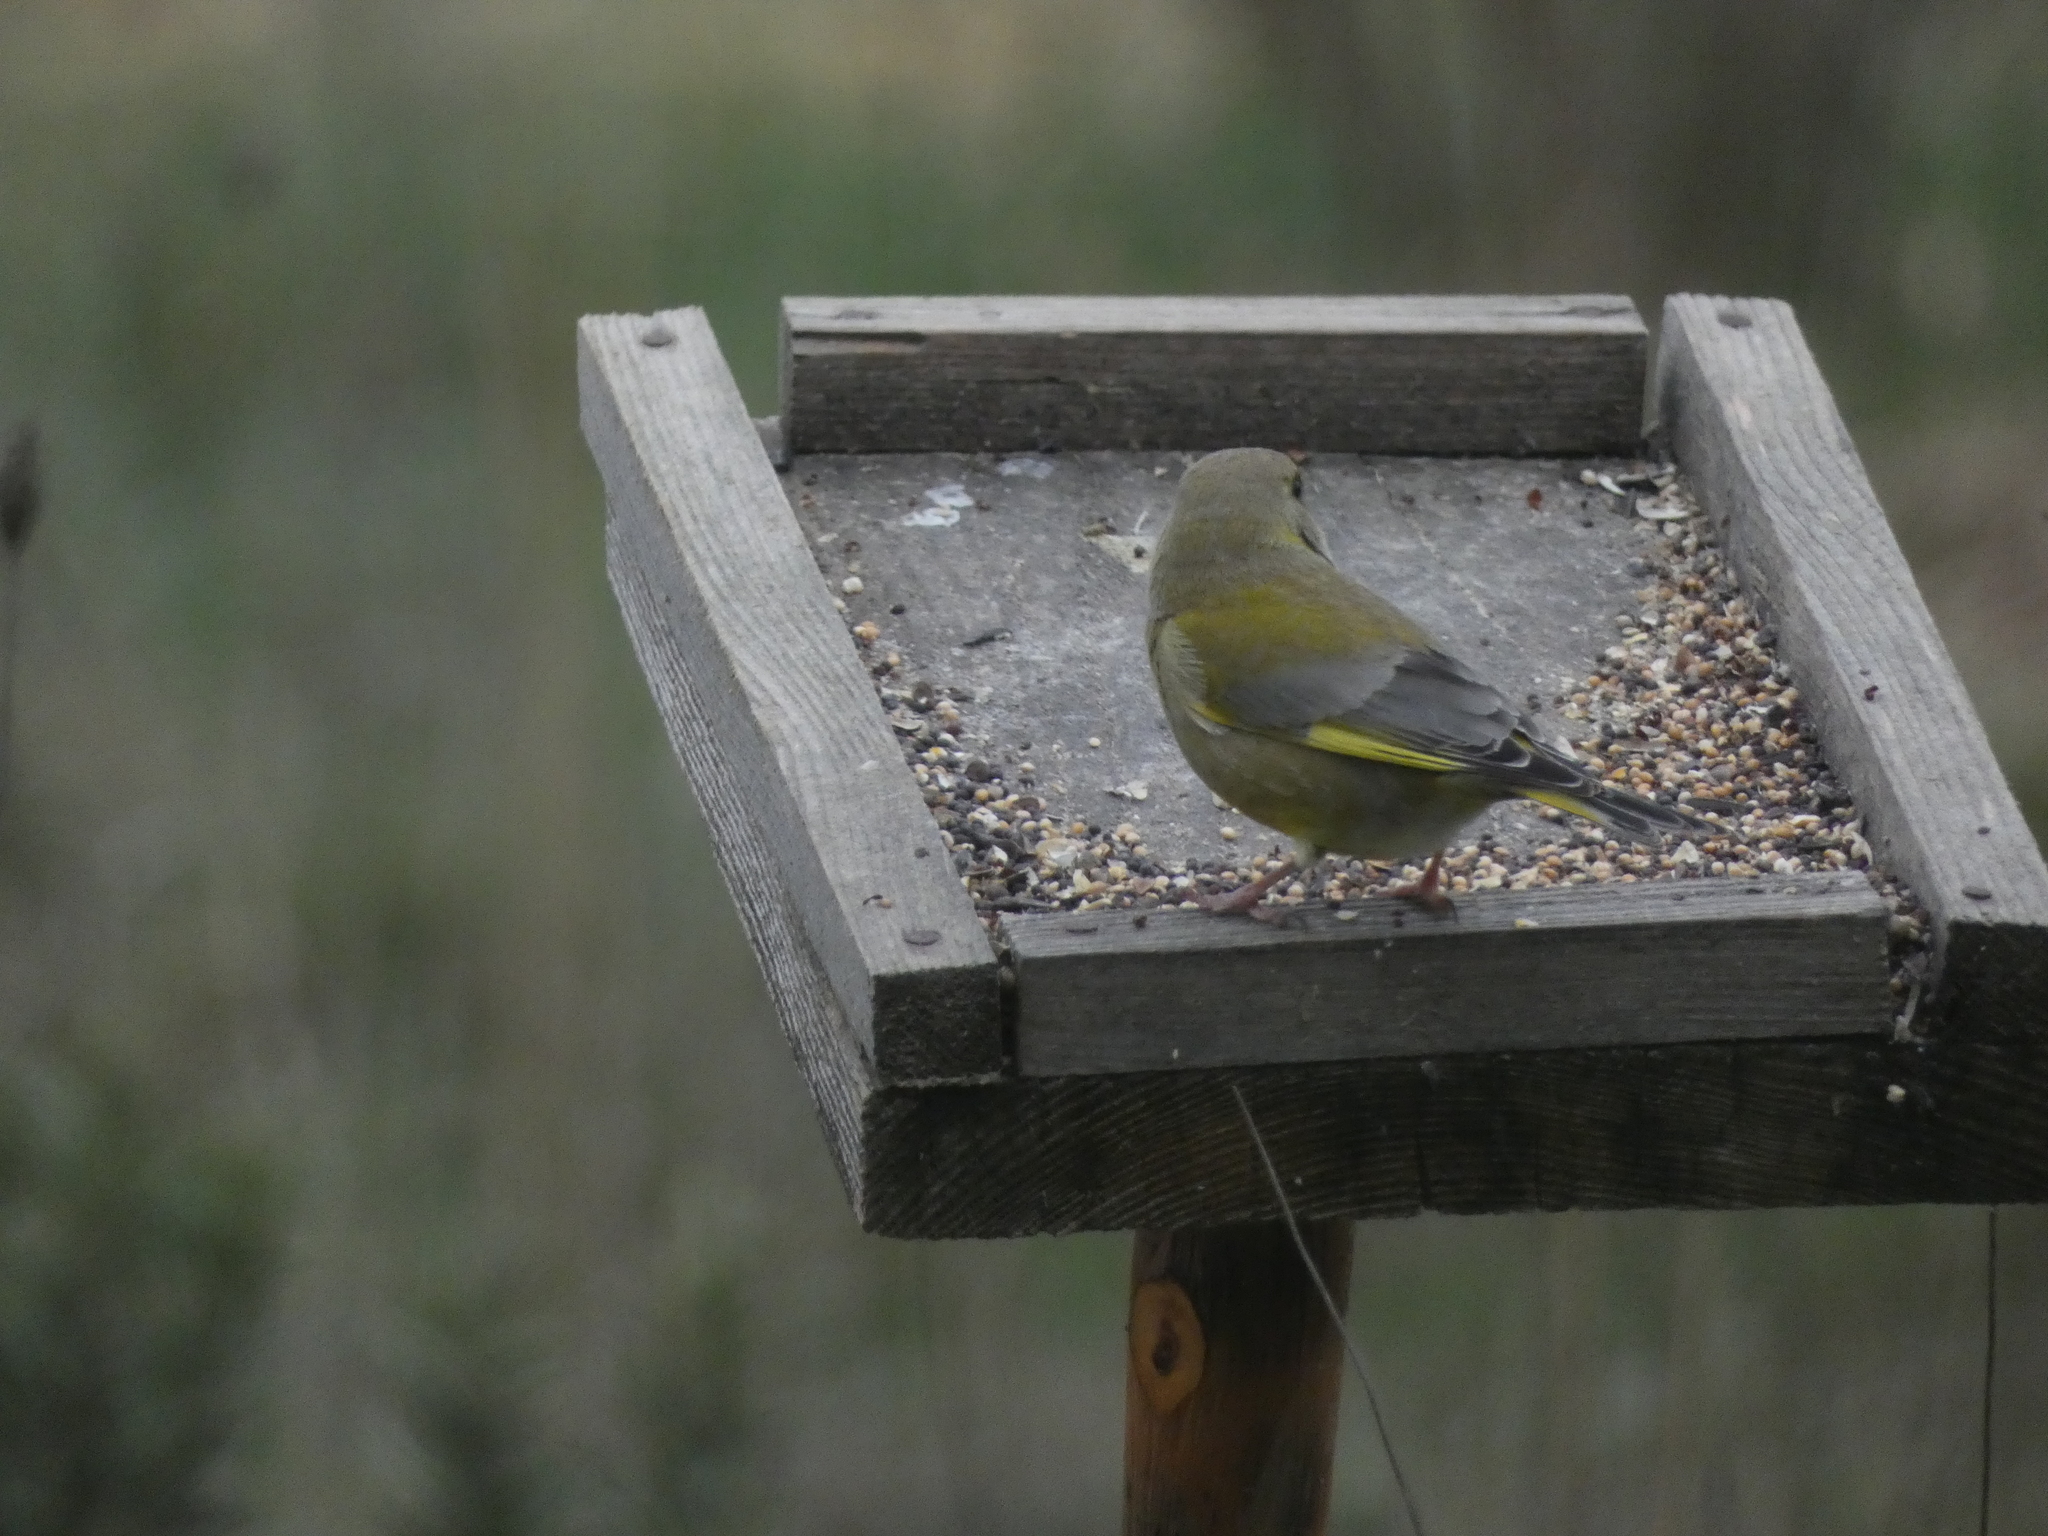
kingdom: Plantae
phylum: Tracheophyta
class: Liliopsida
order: Poales
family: Poaceae
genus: Chloris
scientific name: Chloris chloris
